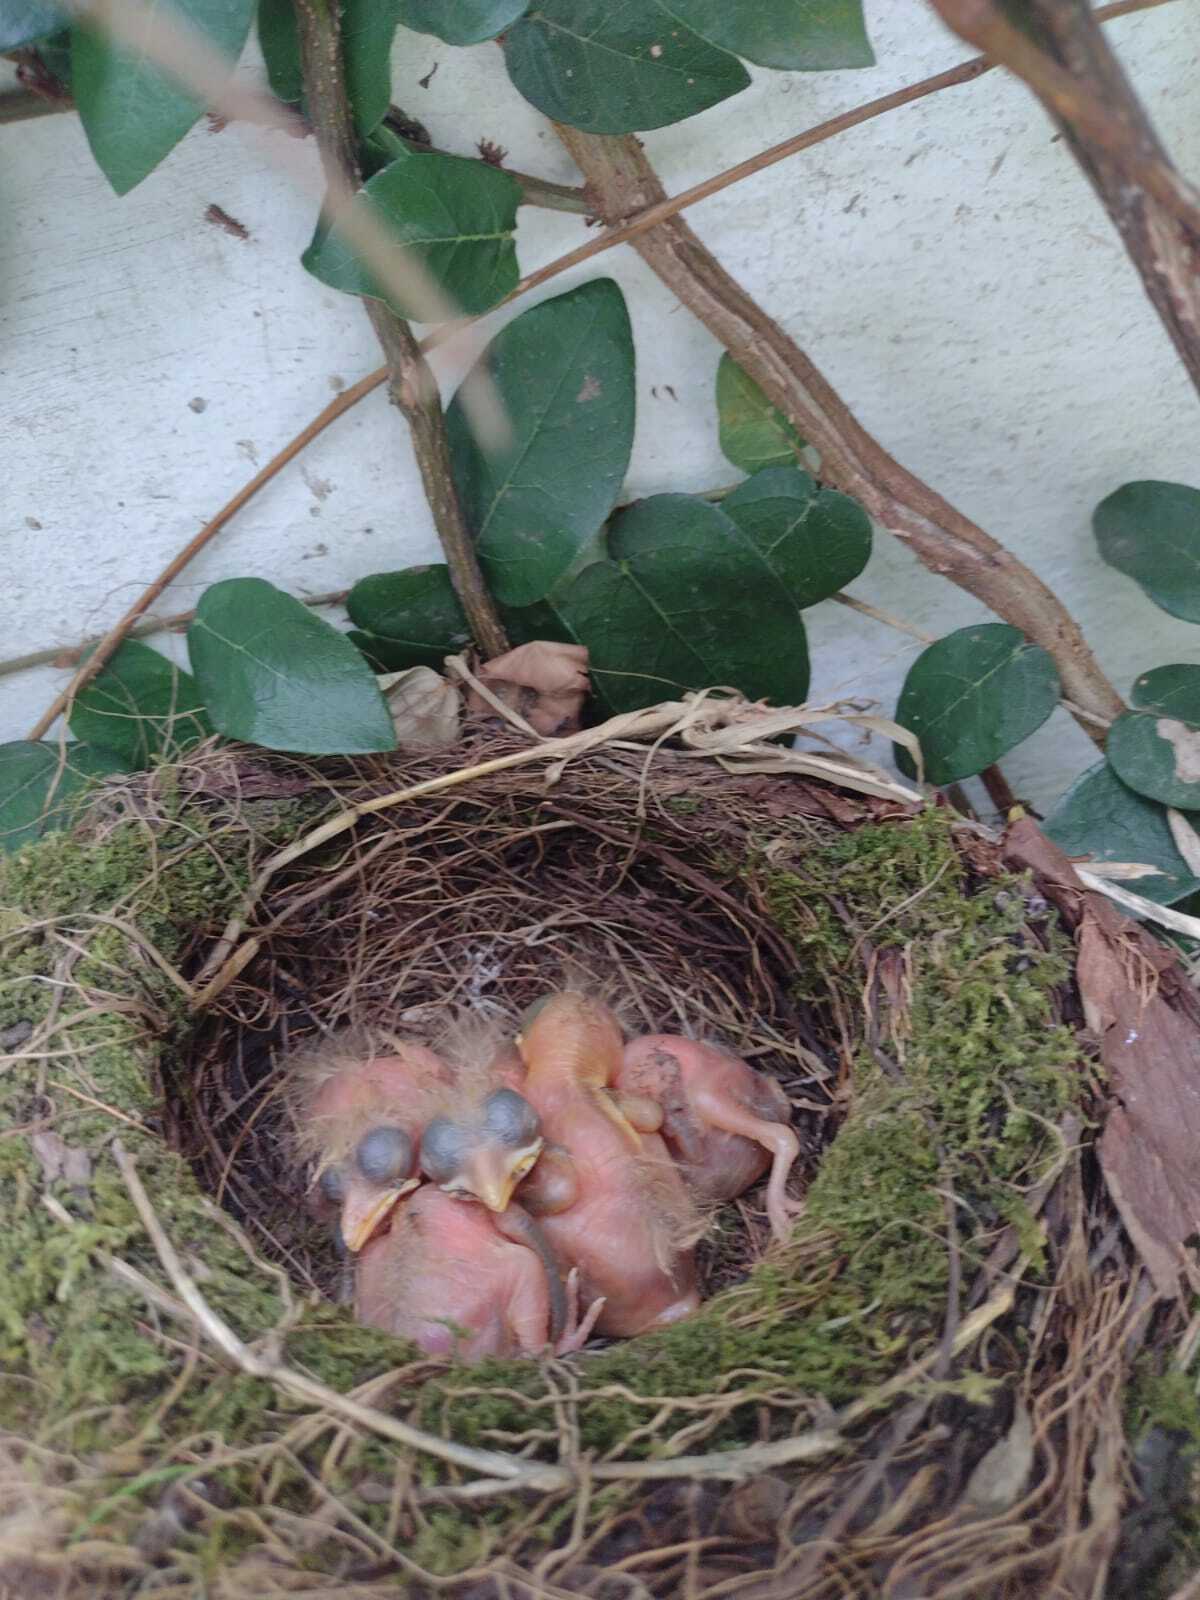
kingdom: Animalia
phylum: Chordata
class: Aves
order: Passeriformes
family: Turdidae
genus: Turdus
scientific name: Turdus rufiventris
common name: Rufous-bellied thrush
